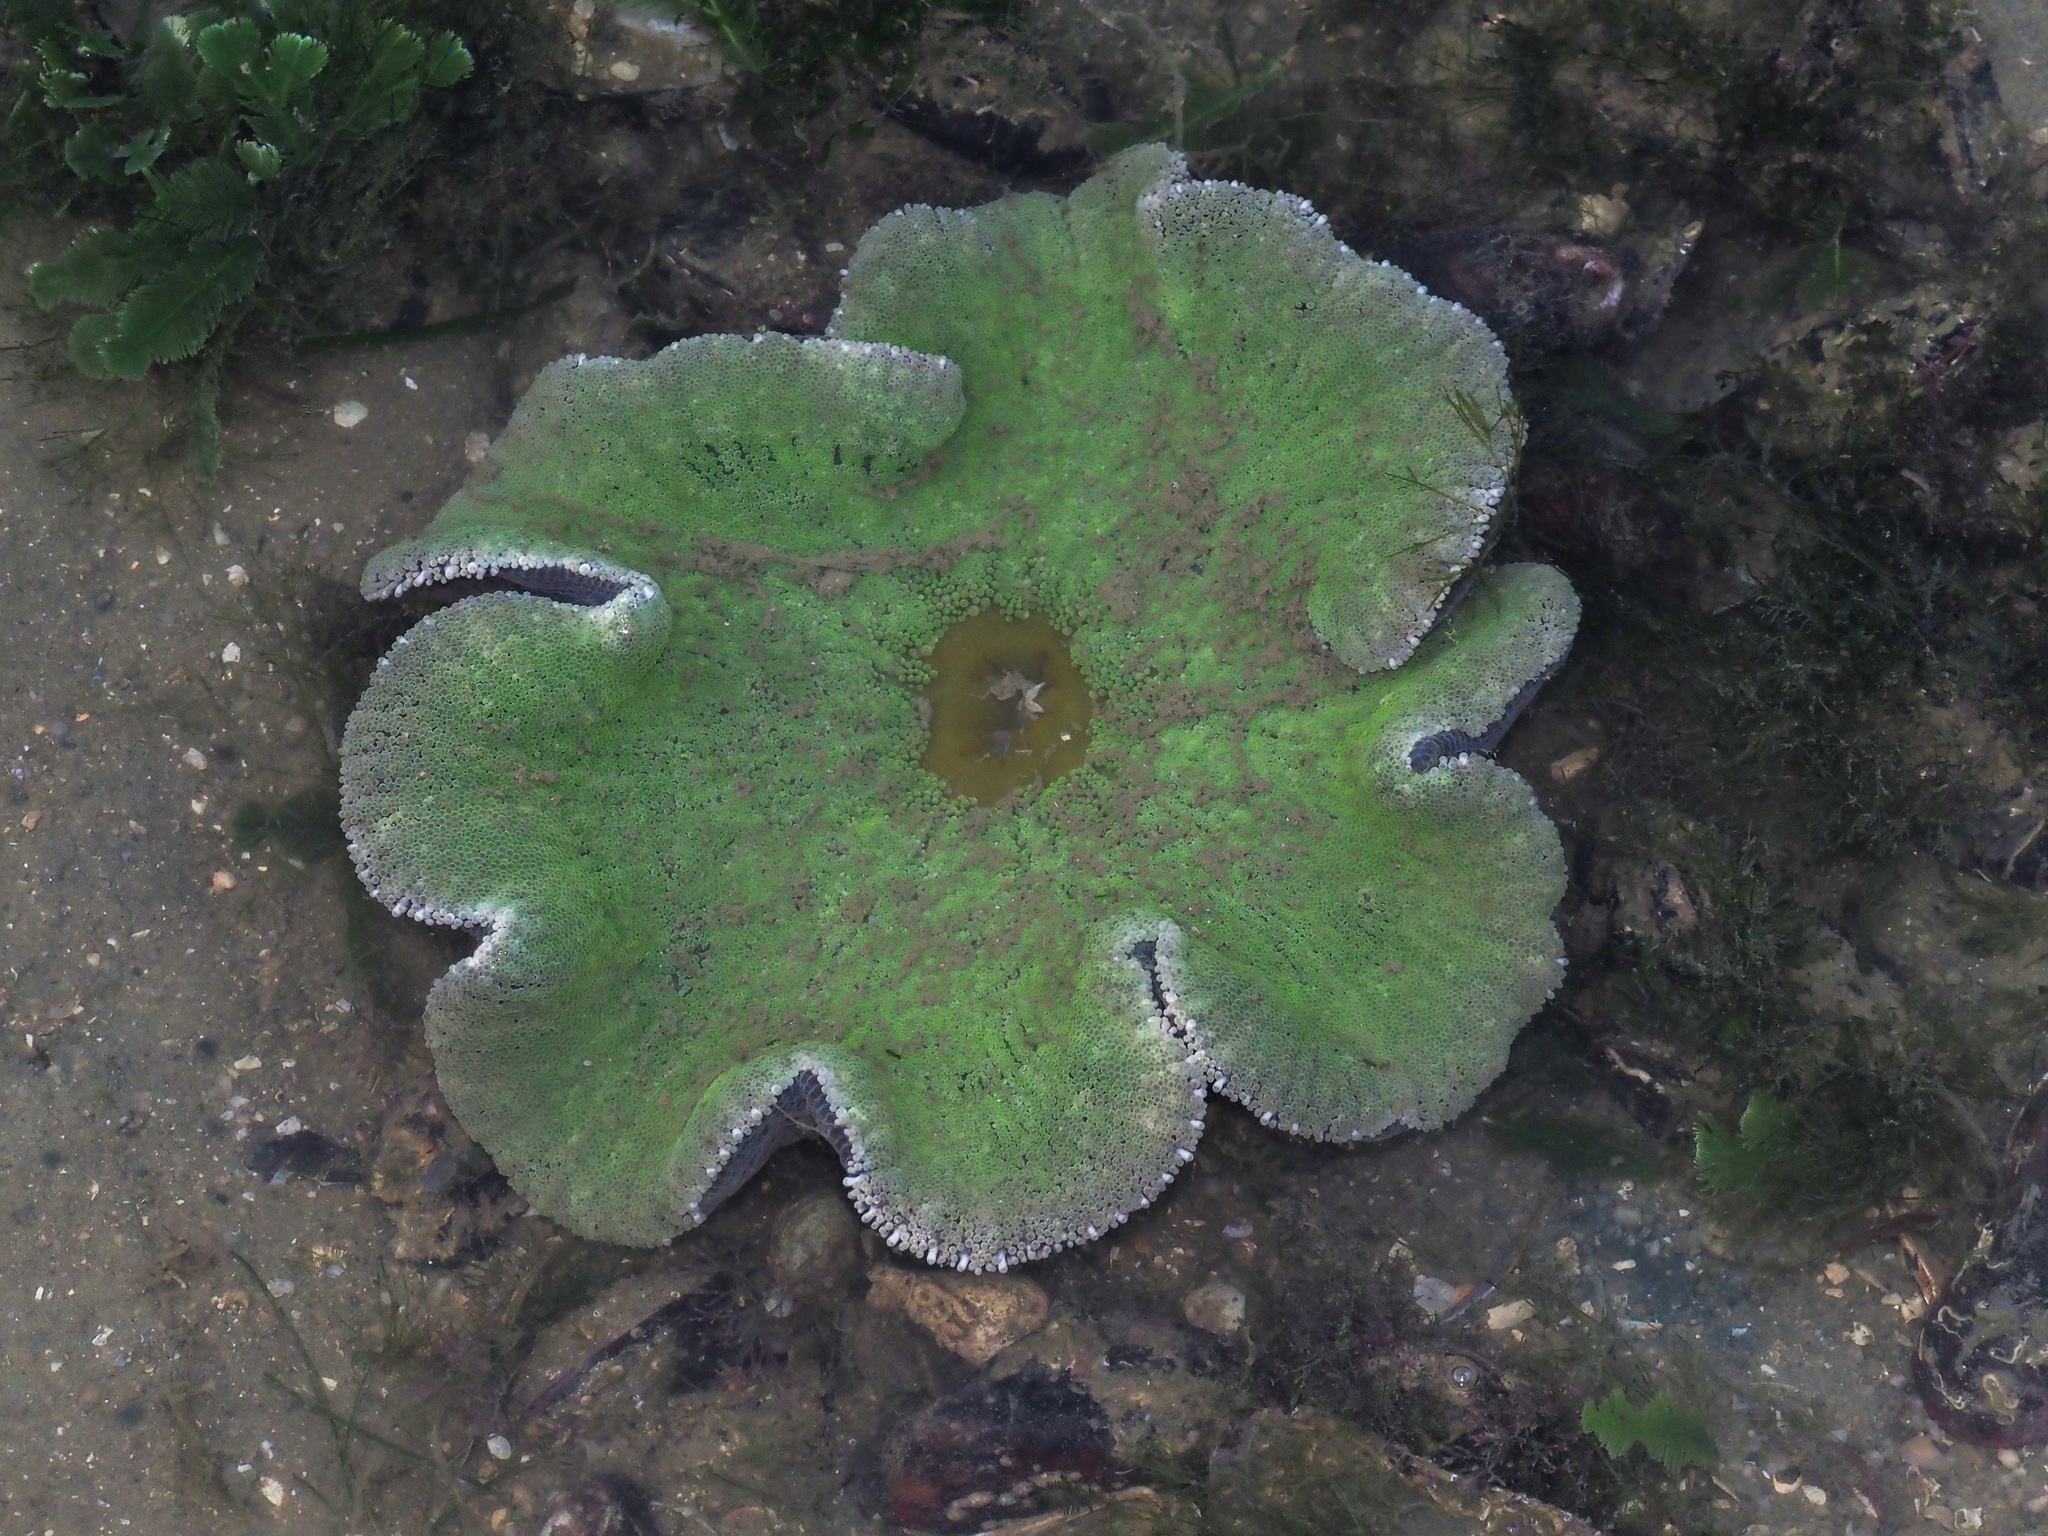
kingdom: Animalia
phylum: Cnidaria
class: Anthozoa
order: Actiniaria
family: Stichodactylidae
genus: Stichodactyla
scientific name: Stichodactyla haddoni
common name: Haddon's sea anemone
